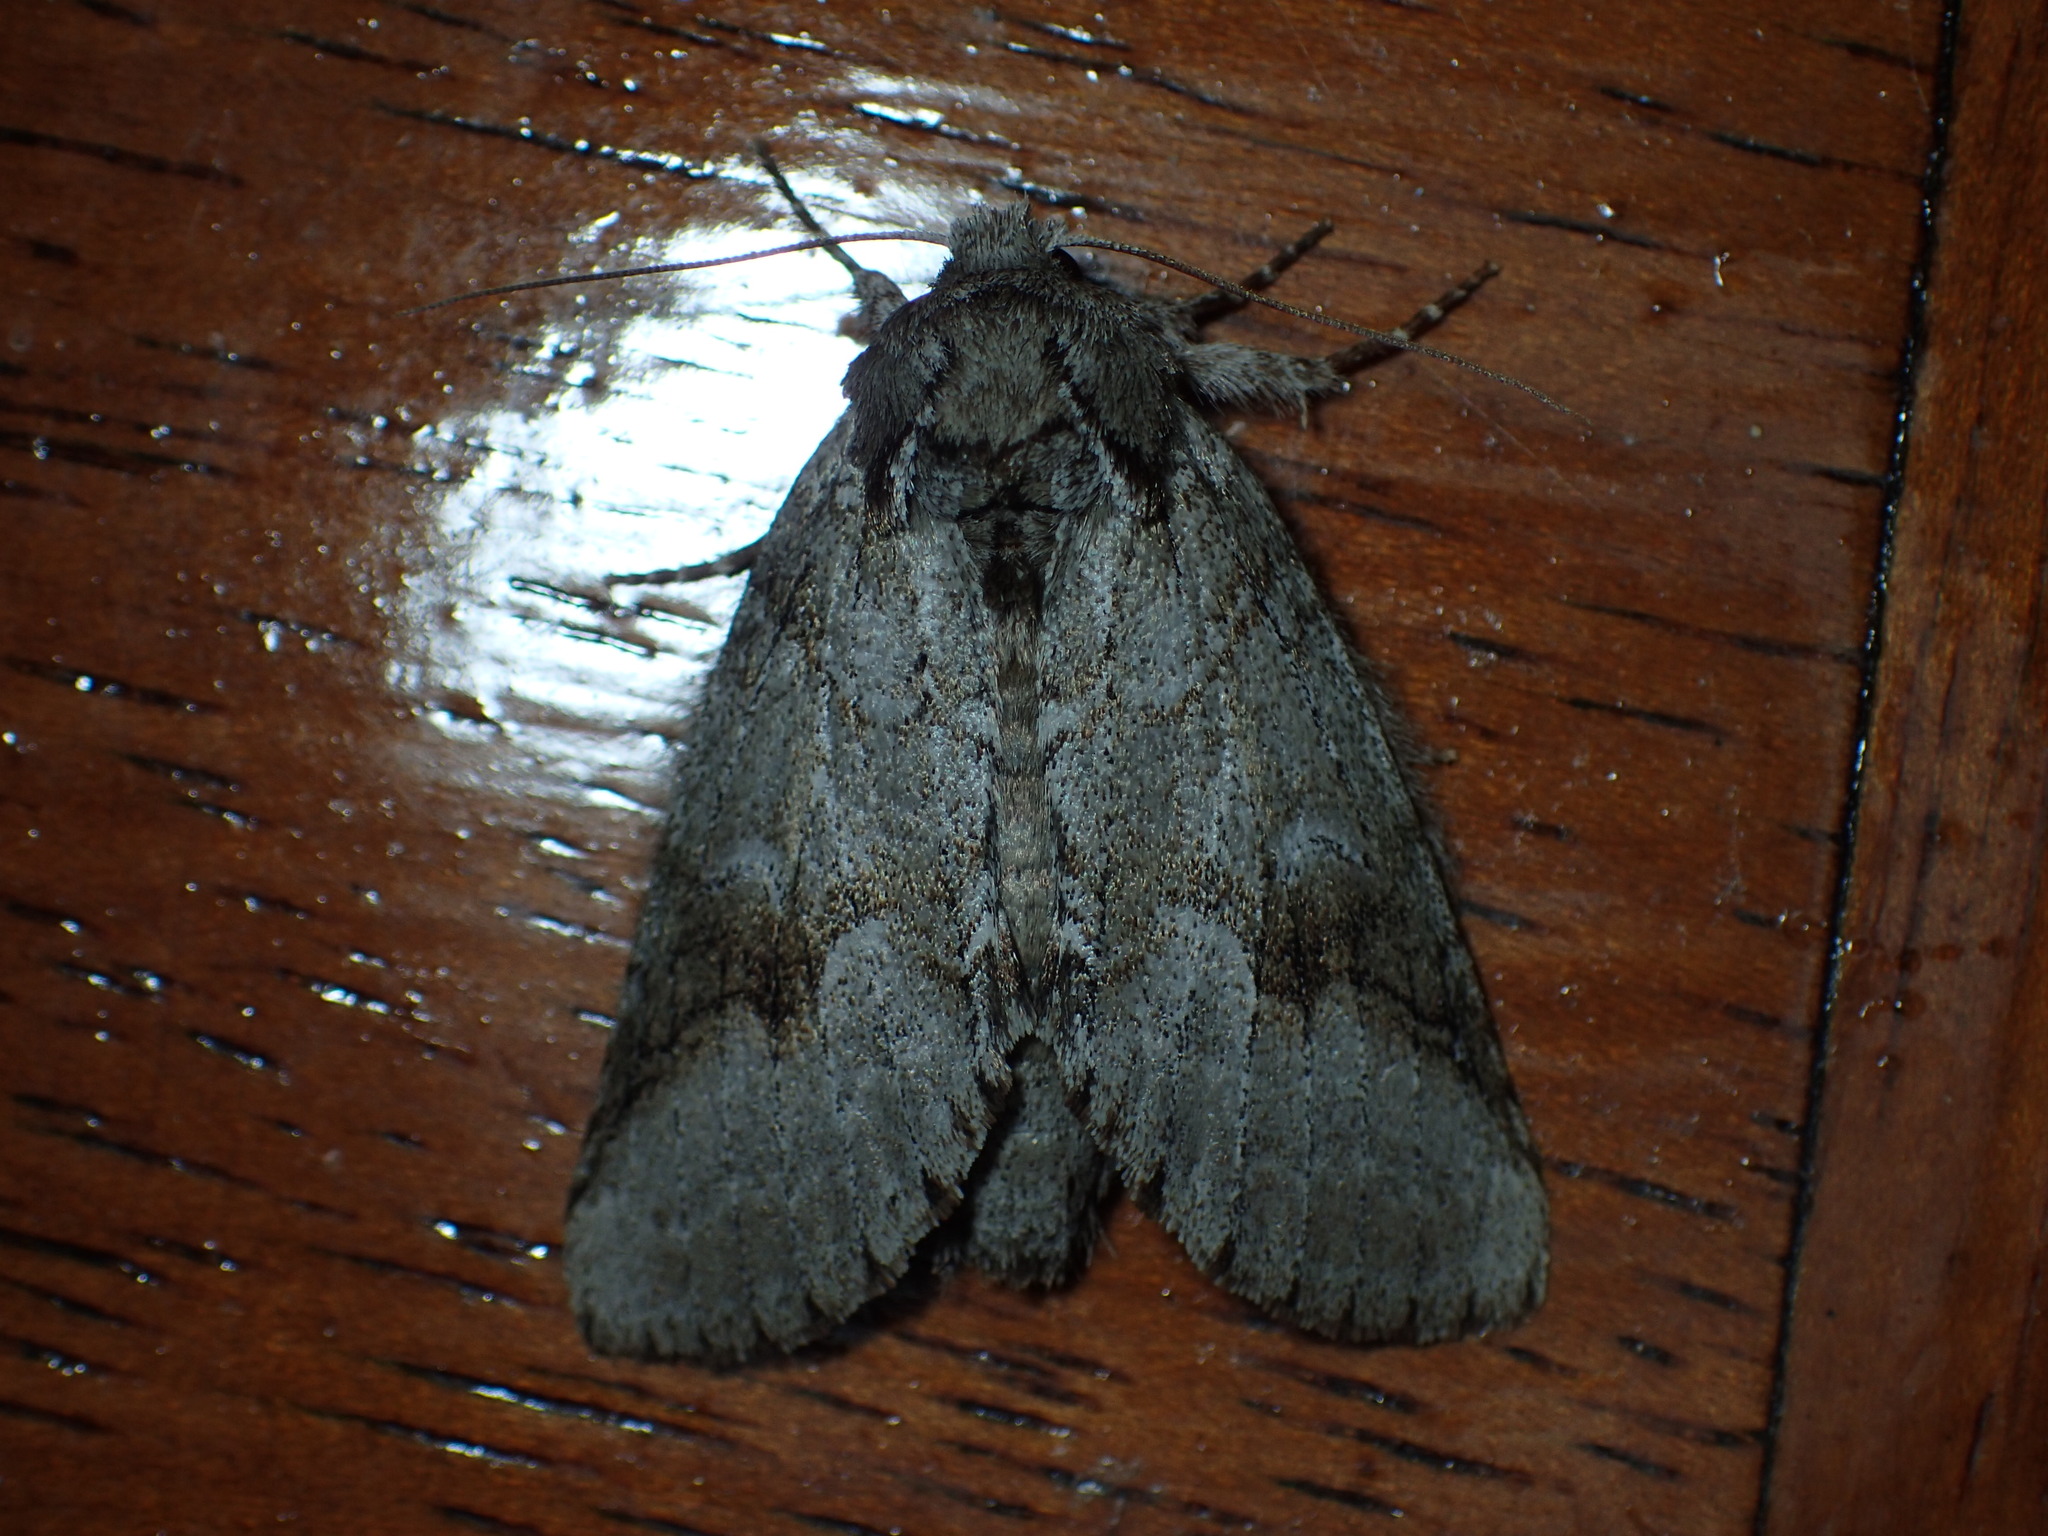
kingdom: Animalia
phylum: Arthropoda
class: Insecta
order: Lepidoptera
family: Notodontidae
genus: Lochmaeus
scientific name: Lochmaeus bilineata
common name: Double-lined prominent
